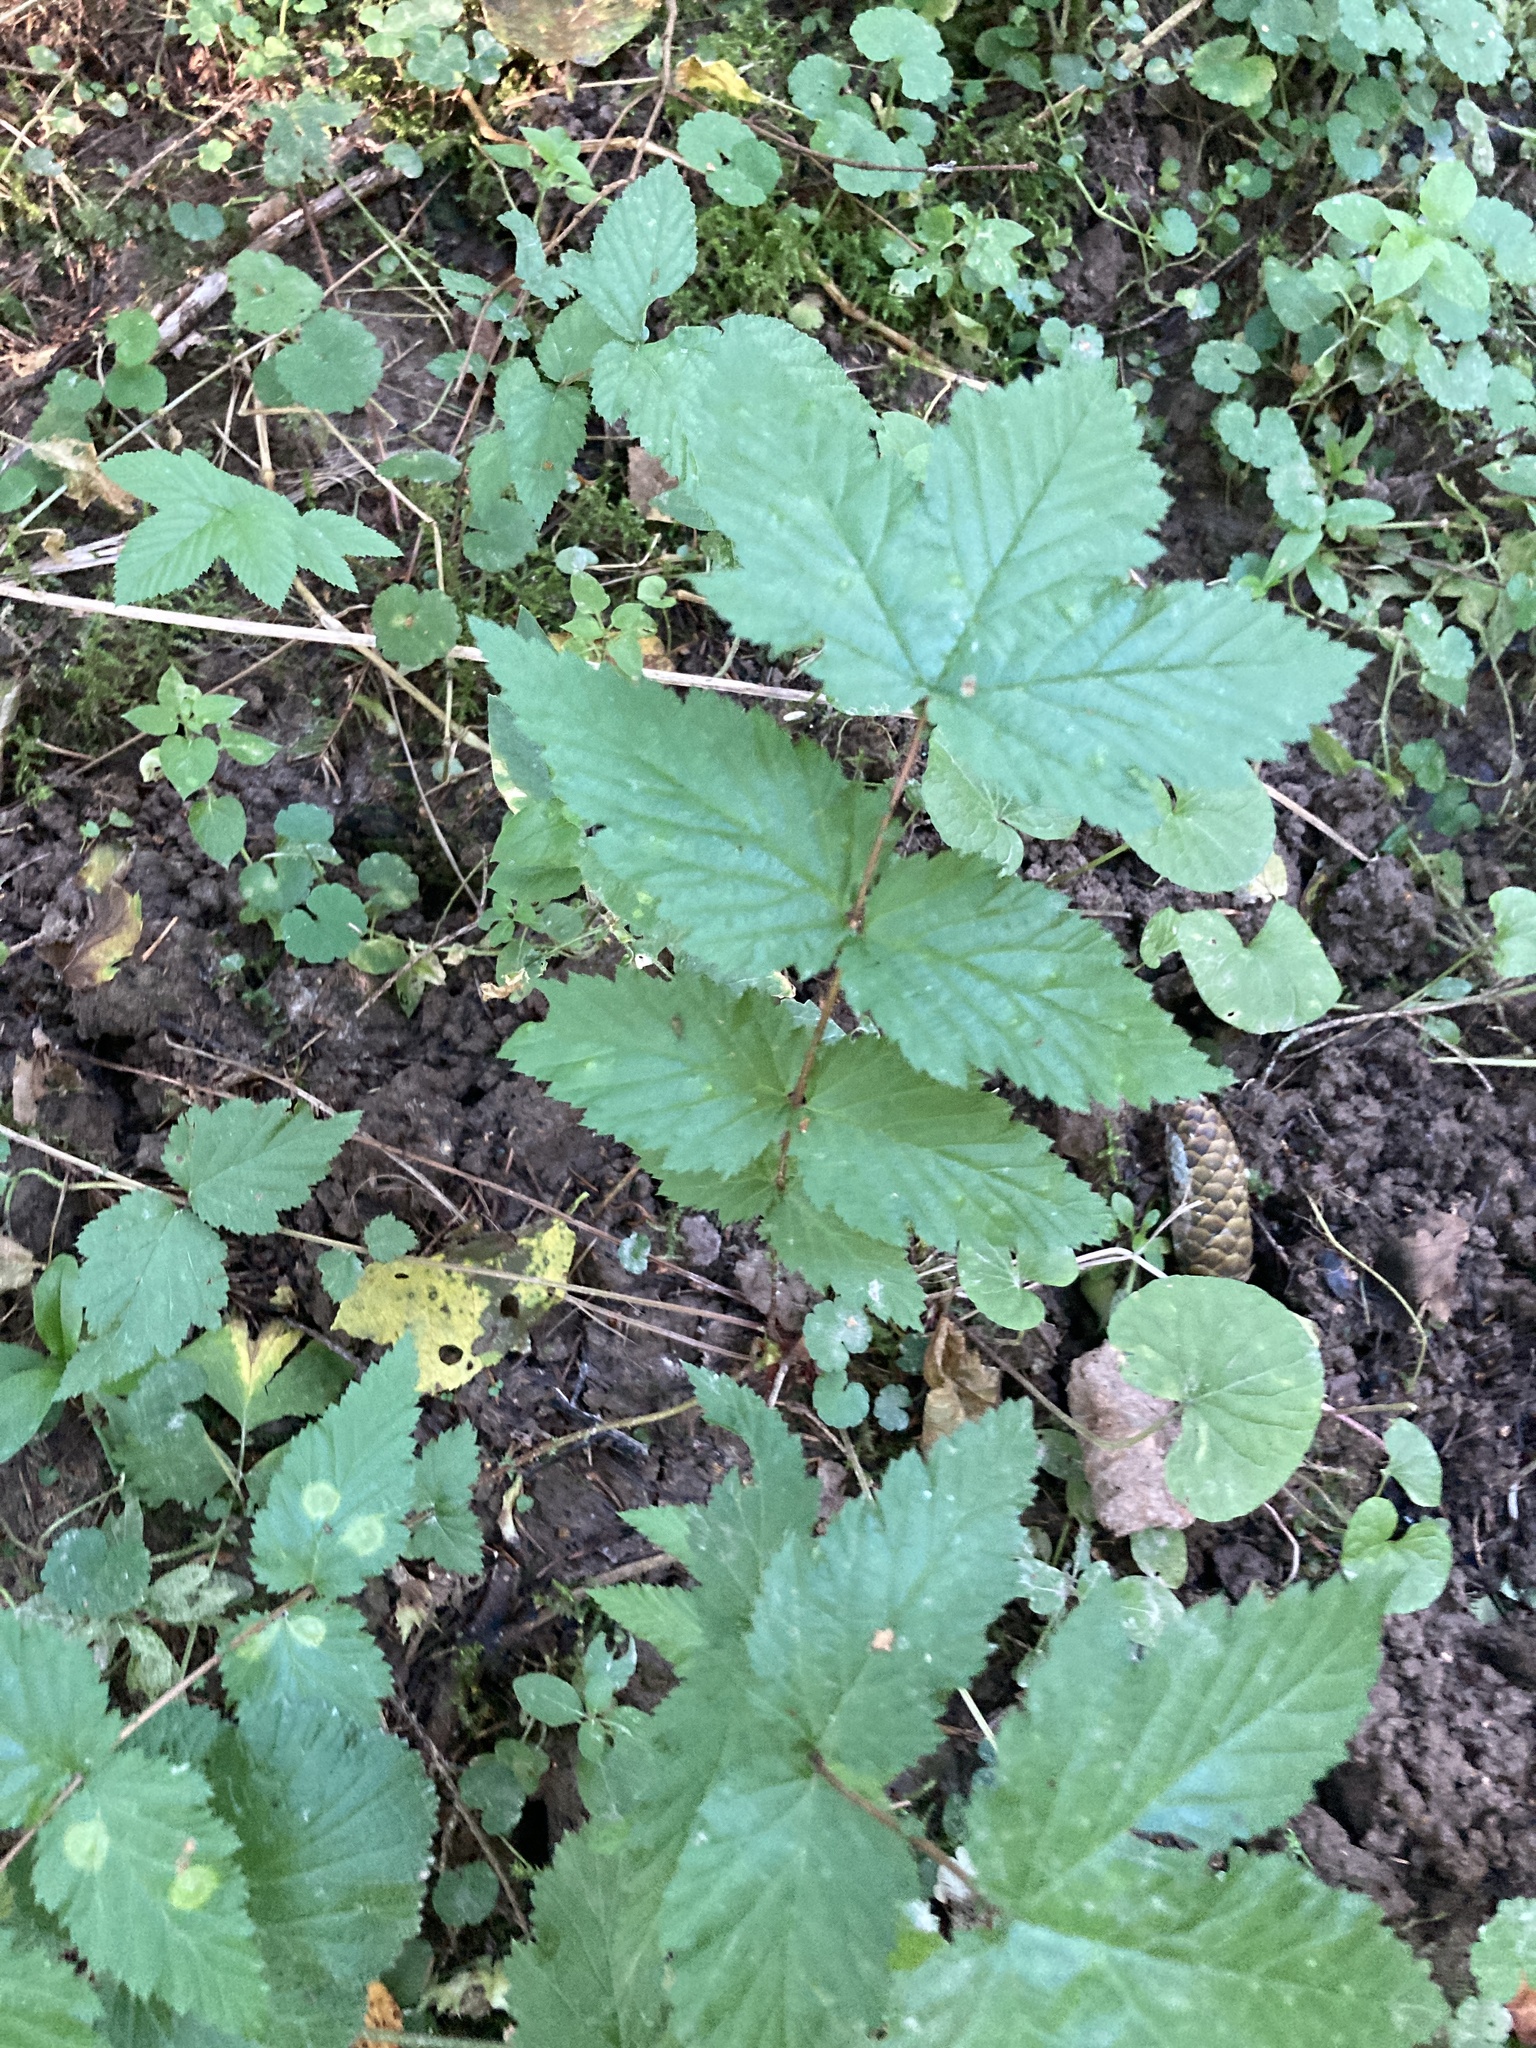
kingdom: Plantae
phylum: Tracheophyta
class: Magnoliopsida
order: Rosales
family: Rosaceae
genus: Filipendula
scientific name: Filipendula ulmaria
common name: Meadowsweet
